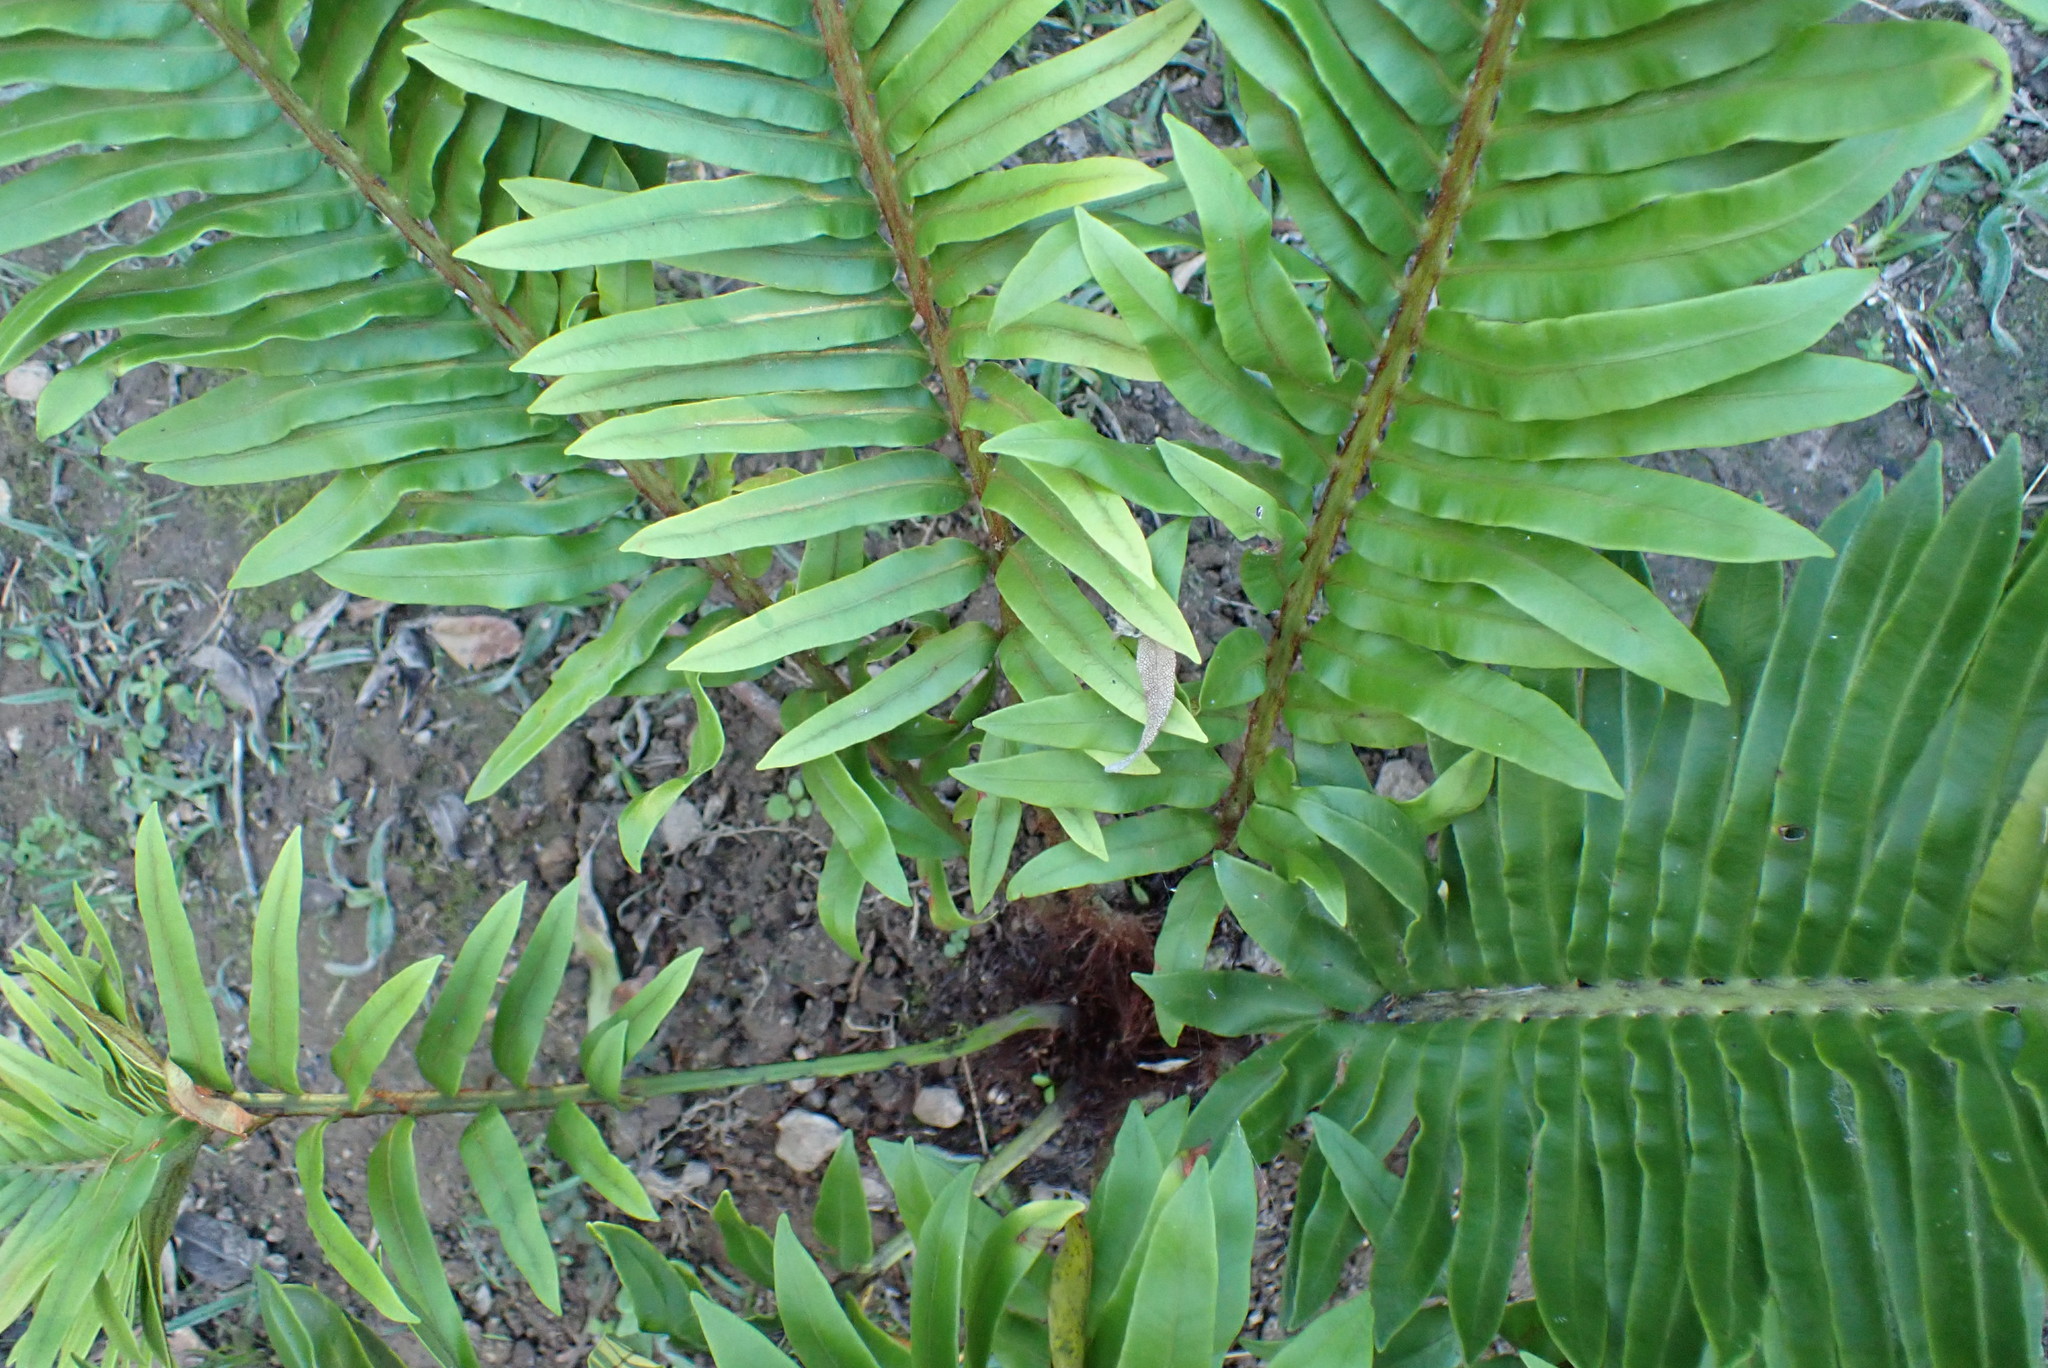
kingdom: Plantae
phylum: Tracheophyta
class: Polypodiopsida
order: Polypodiales
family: Blechnaceae
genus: Lomariocycas
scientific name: Lomariocycas tabularis
